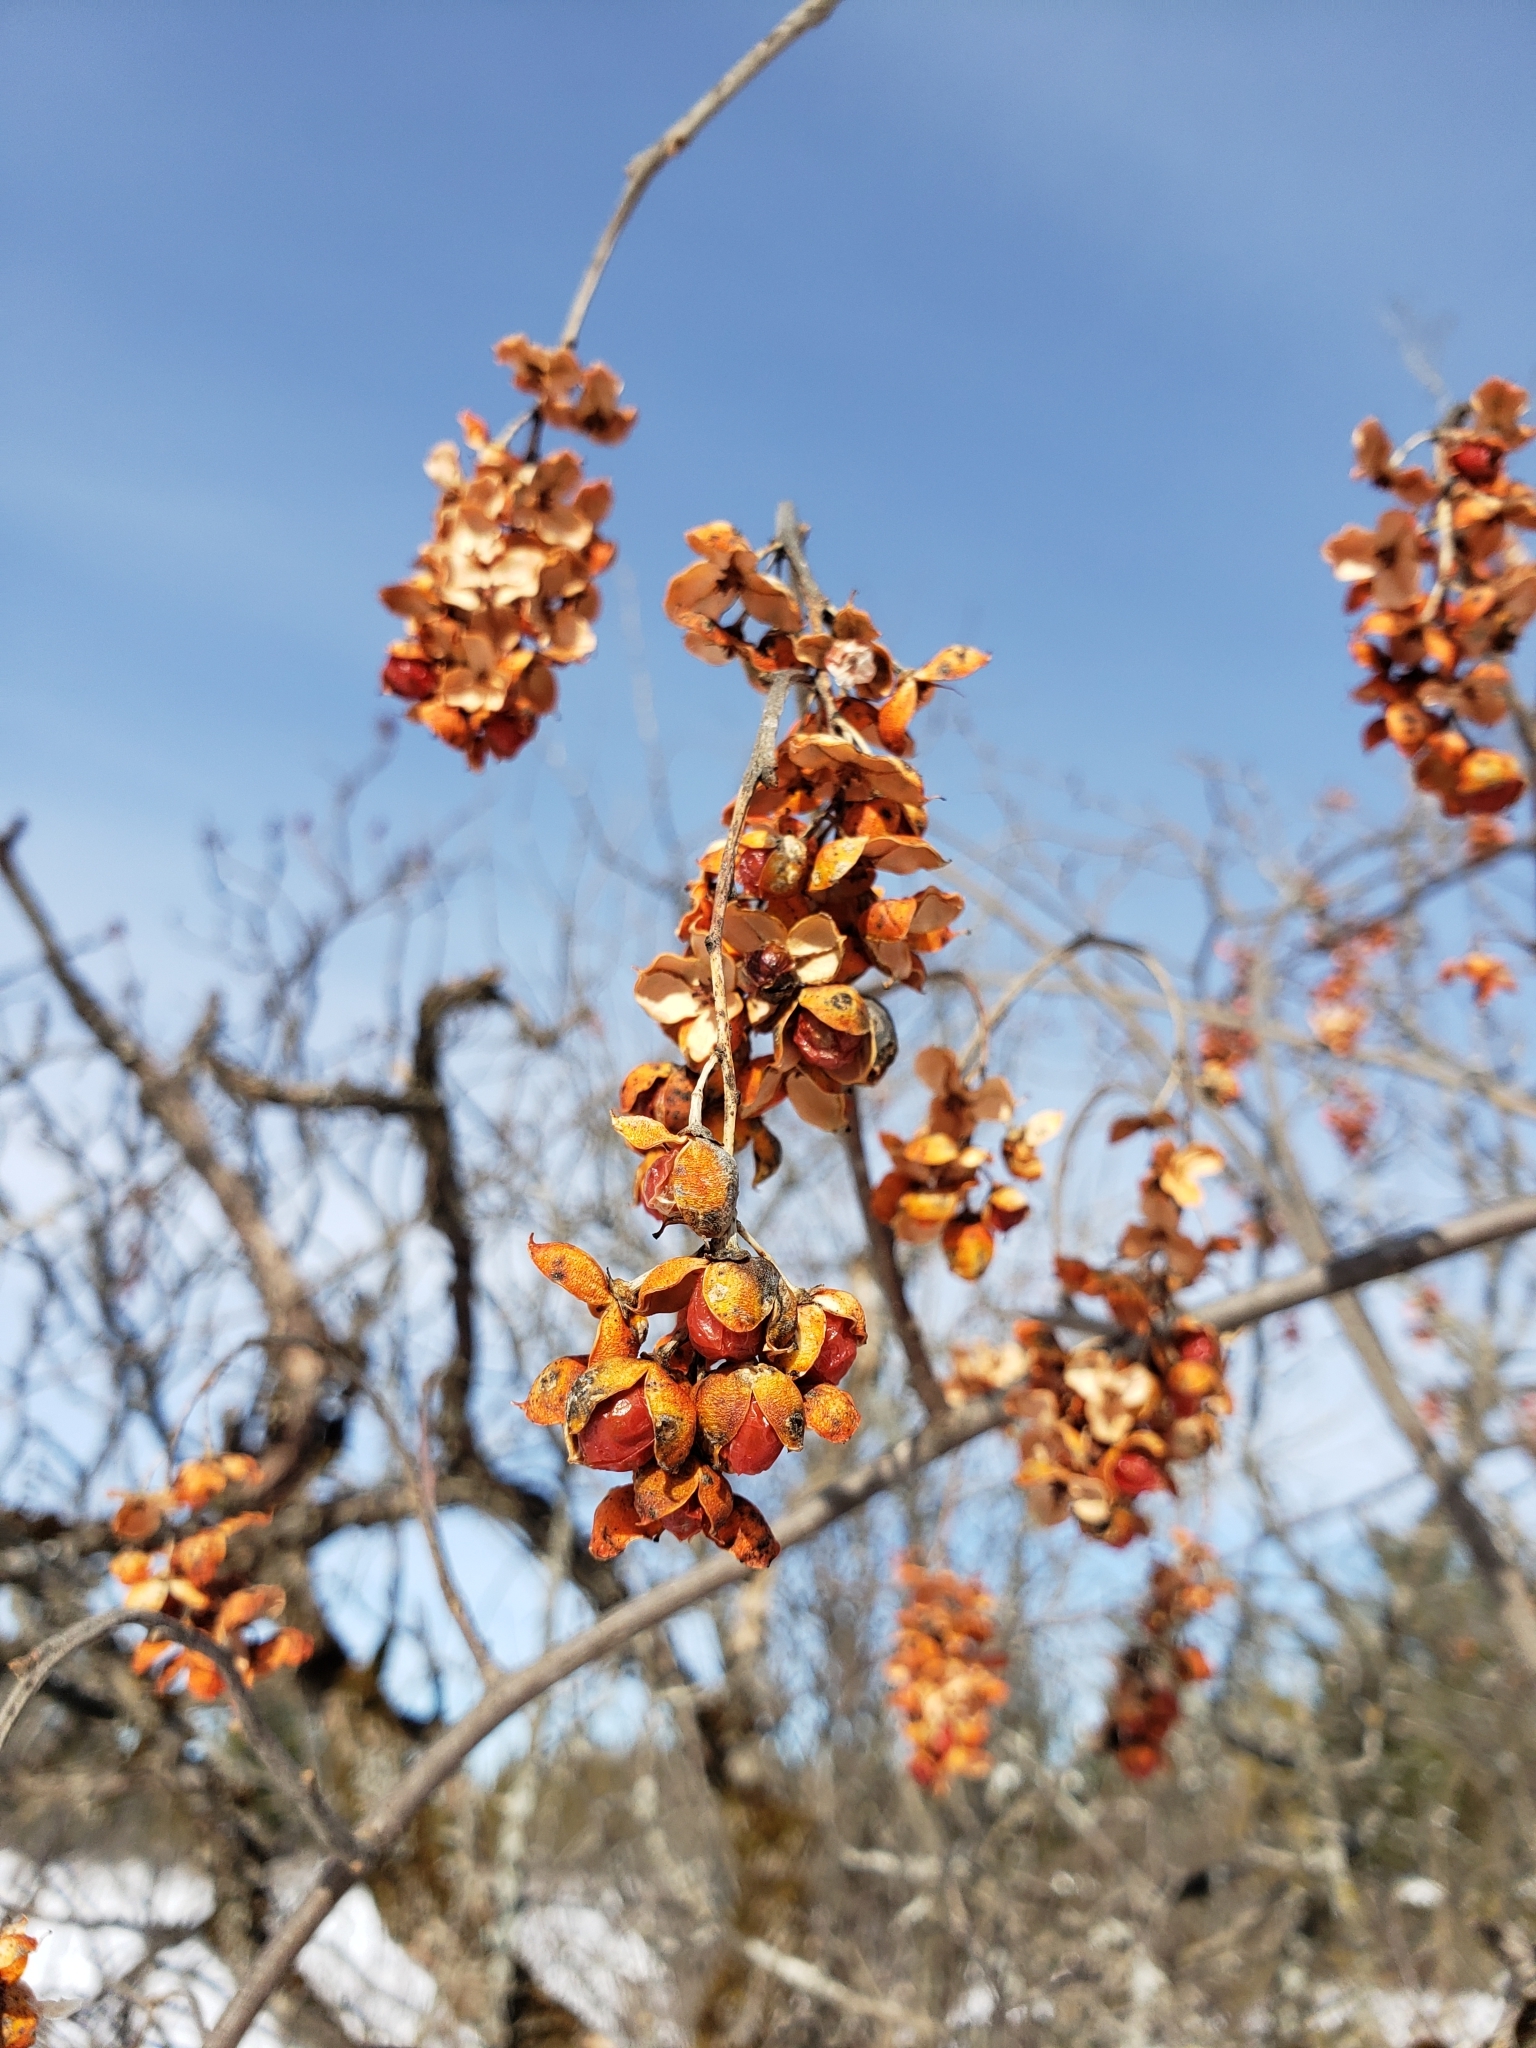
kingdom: Plantae
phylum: Tracheophyta
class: Magnoliopsida
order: Celastrales
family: Celastraceae
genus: Celastrus
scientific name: Celastrus scandens
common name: American bittersweet
